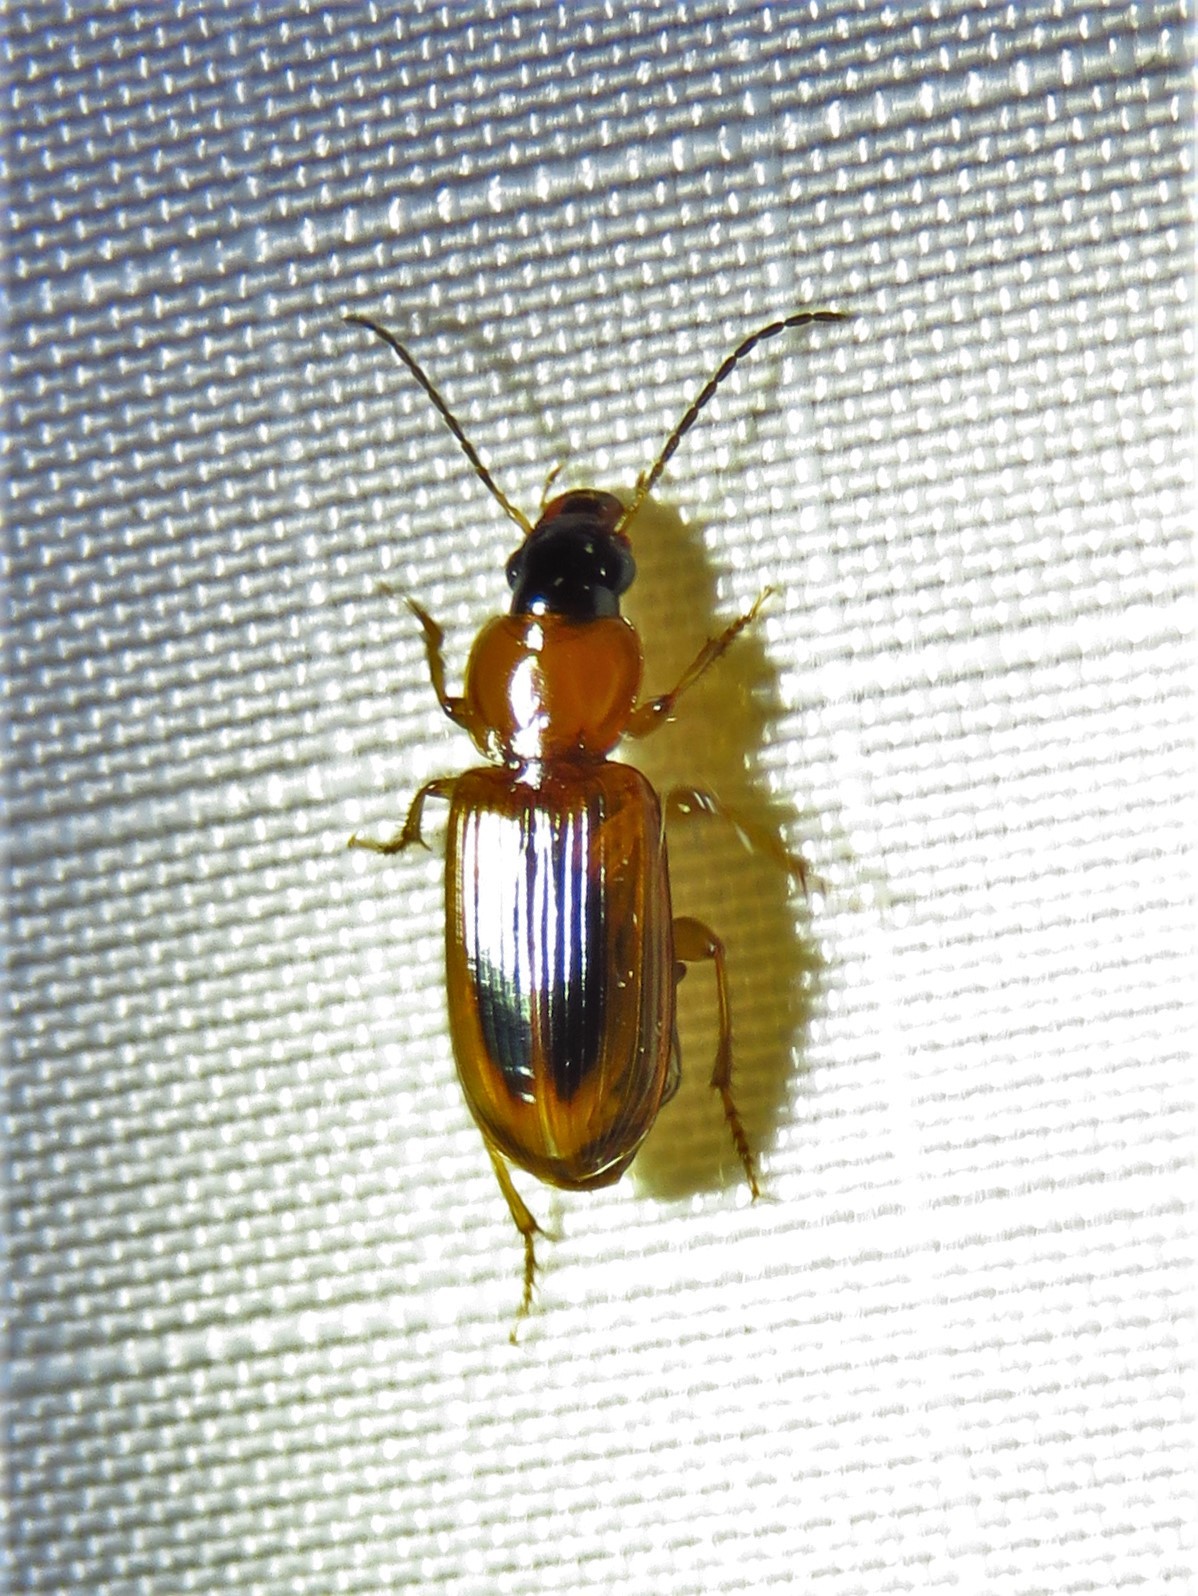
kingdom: Animalia
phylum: Arthropoda
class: Insecta
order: Coleoptera
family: Carabidae
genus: Stenolophus
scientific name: Stenolophus dissimilis
